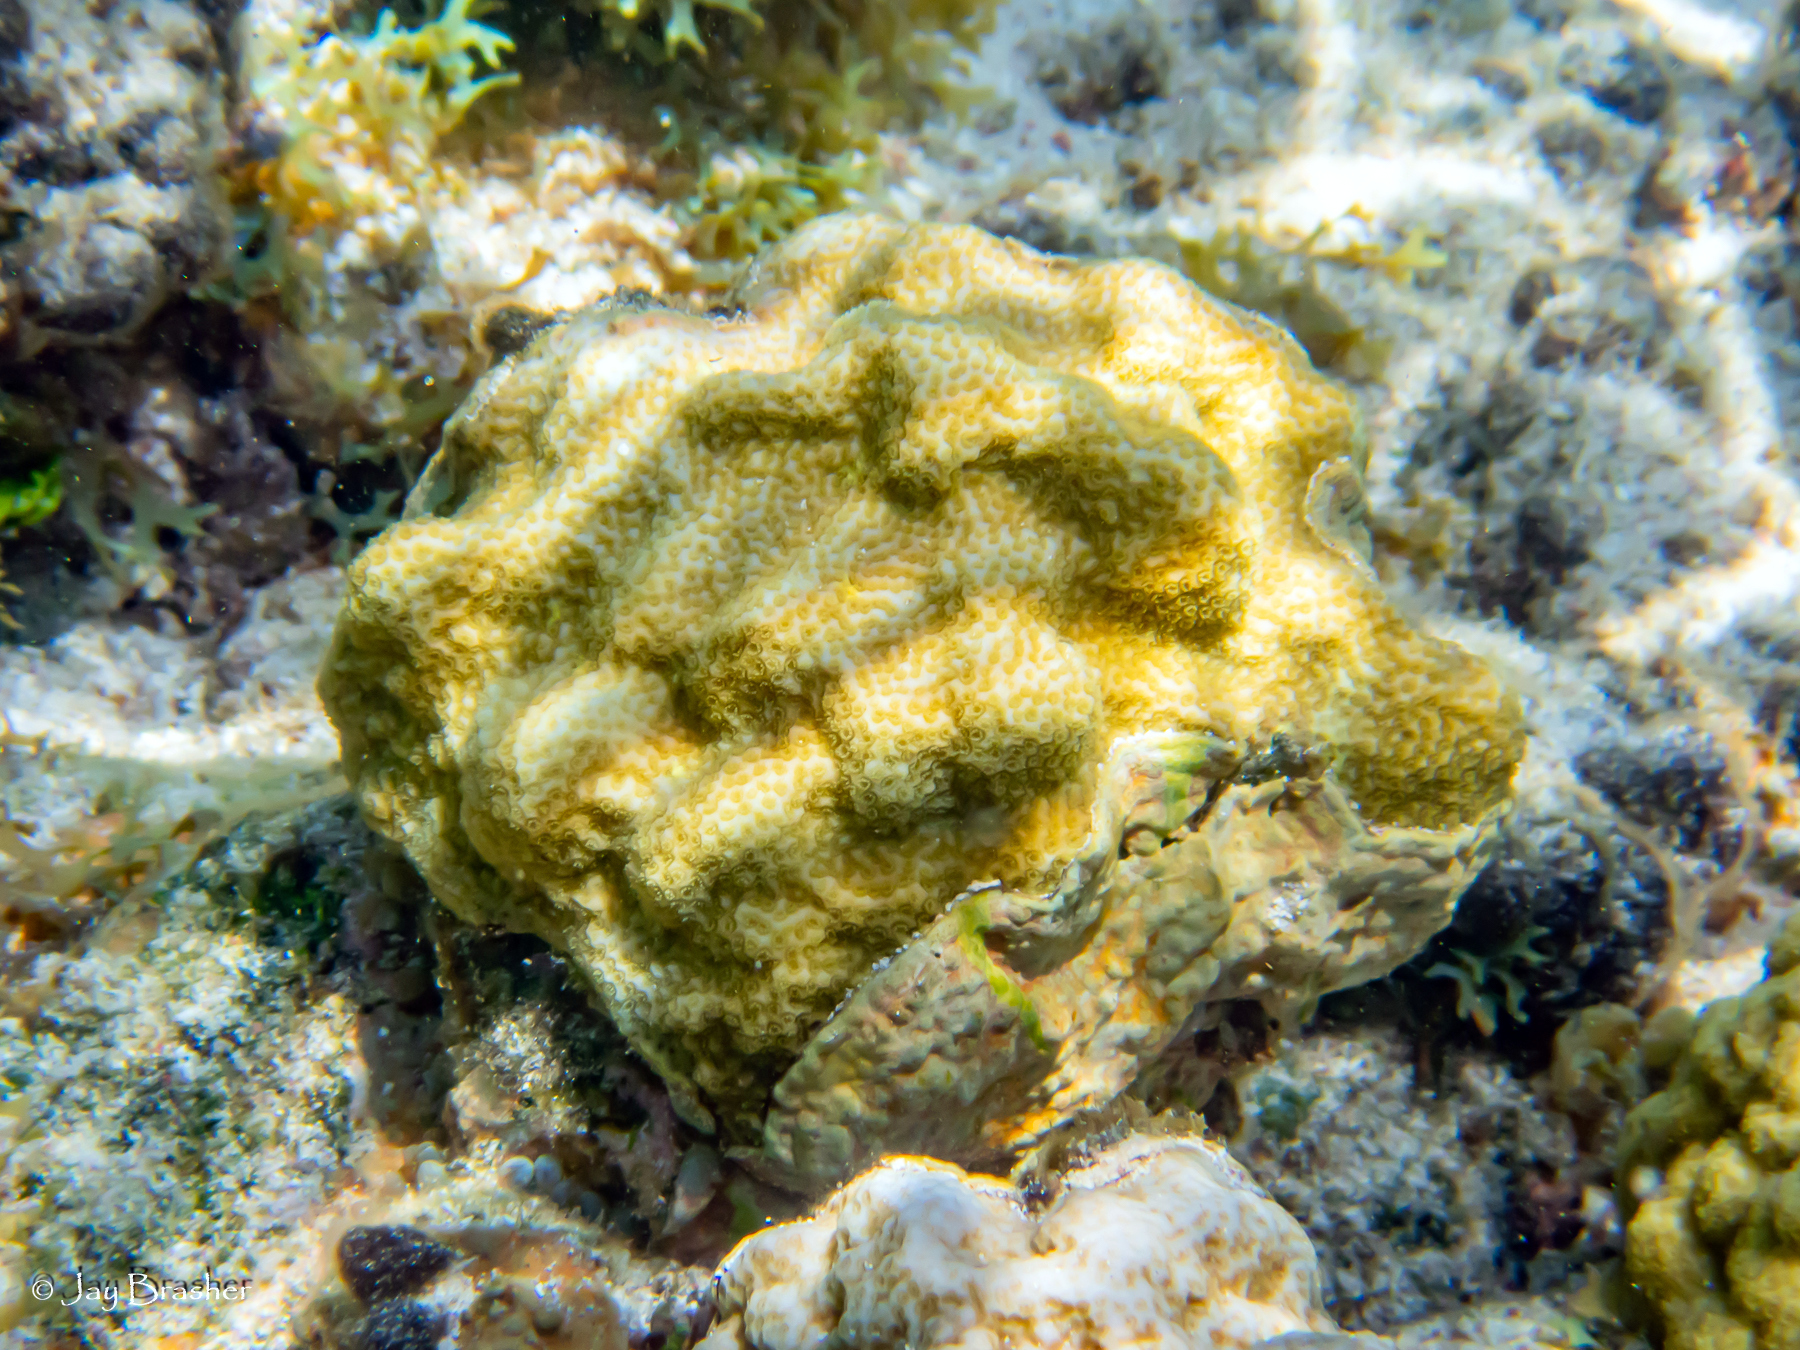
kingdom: Animalia
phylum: Cnidaria
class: Anthozoa
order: Scleractinia
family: Poritidae
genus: Porites
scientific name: Porites astreoides
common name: Mustard hill coral
